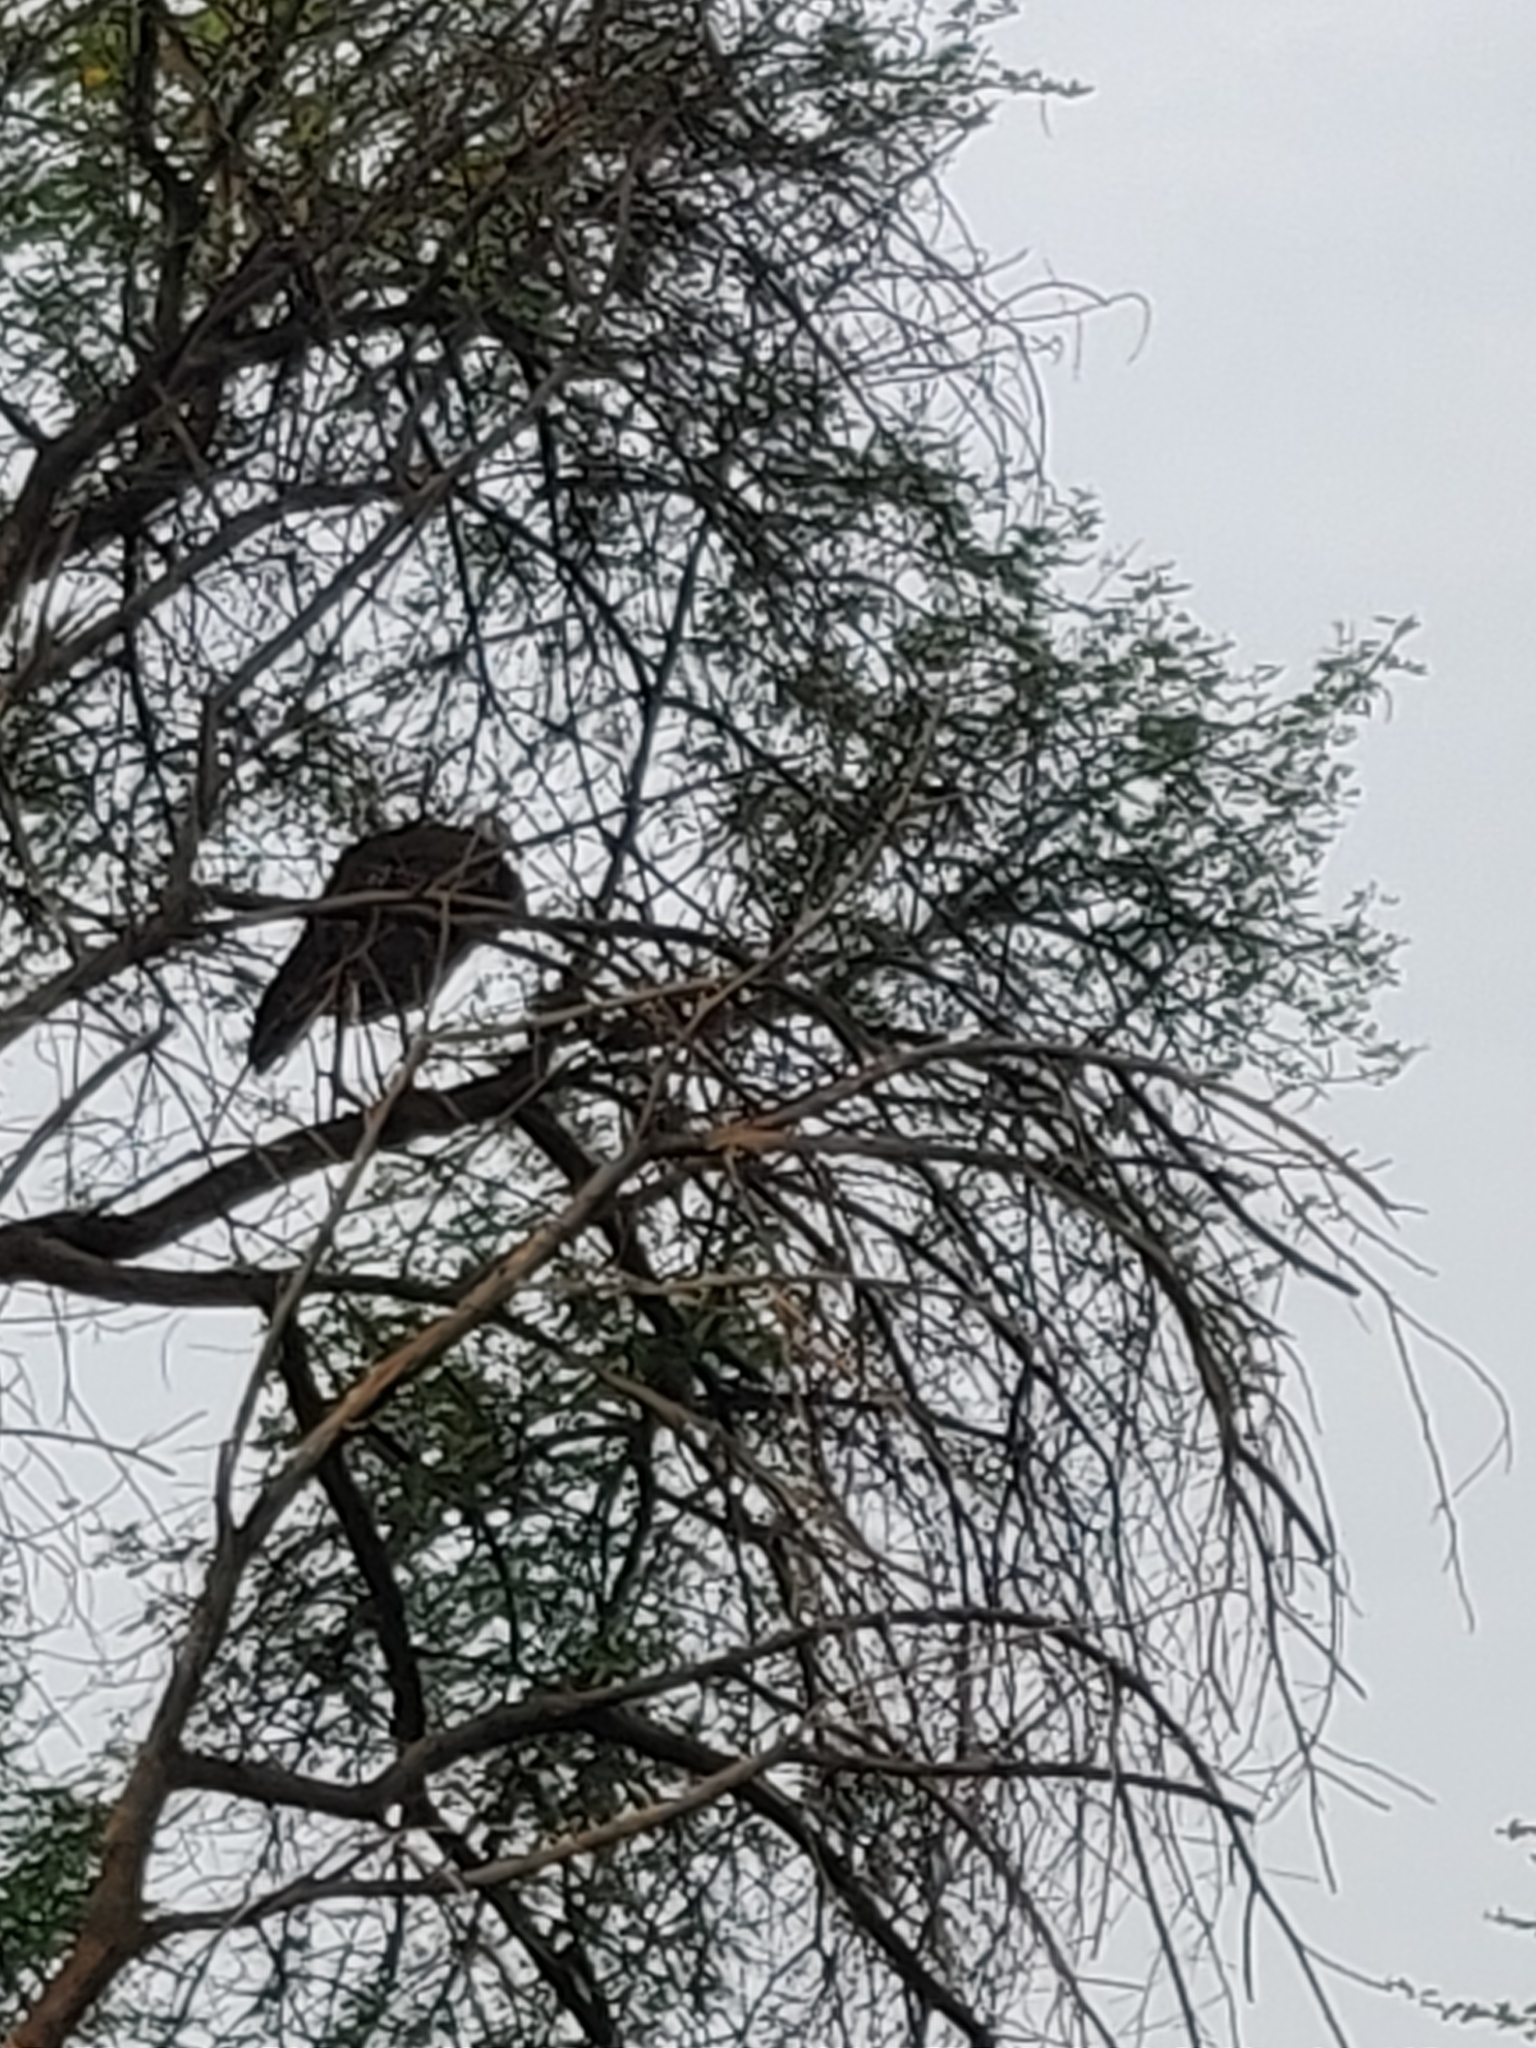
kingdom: Animalia
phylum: Chordata
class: Aves
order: Galliformes
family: Phasianidae
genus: Pavo
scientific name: Pavo cristatus
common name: Indian peafowl
